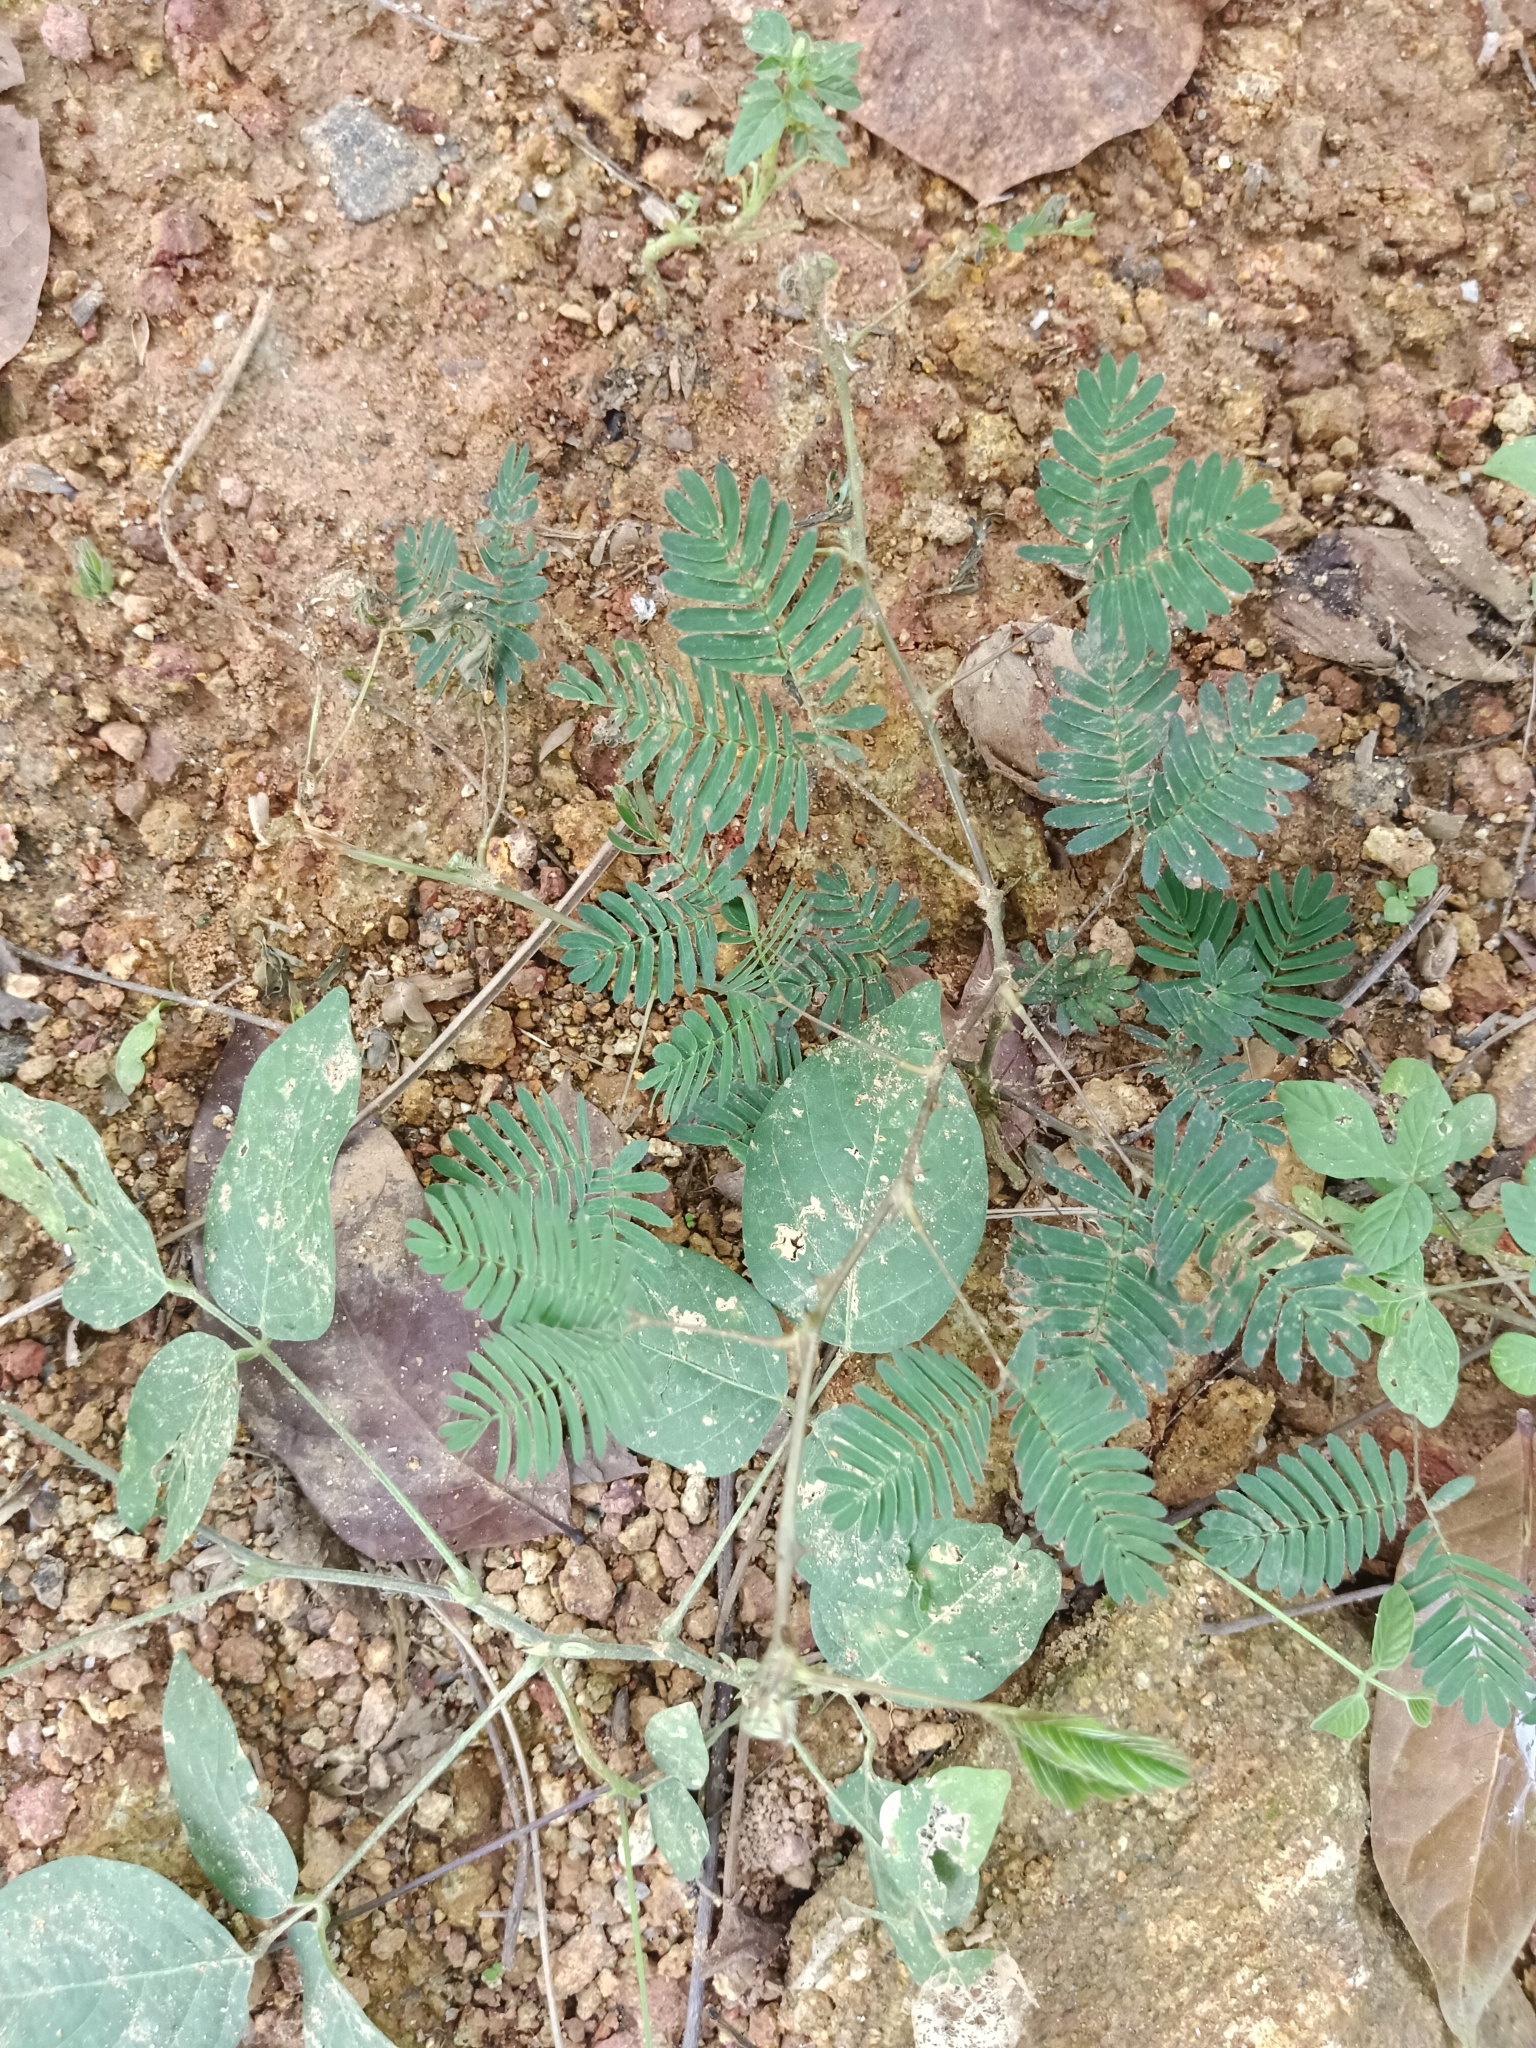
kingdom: Plantae
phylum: Tracheophyta
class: Magnoliopsida
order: Fabales
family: Fabaceae
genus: Mimosa
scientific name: Mimosa pudica
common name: Sensitive plant
